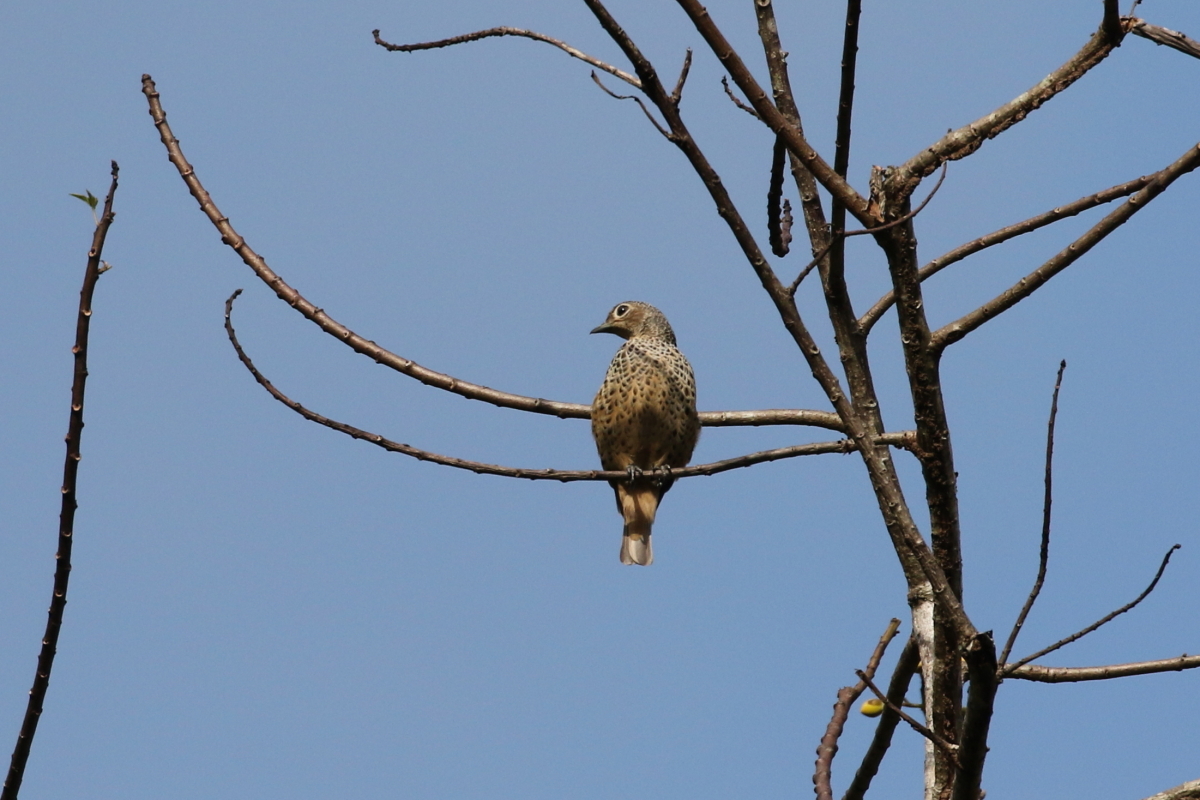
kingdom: Animalia
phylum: Chordata
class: Aves
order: Passeriformes
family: Cotingidae
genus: Cotinga
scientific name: Cotinga nattererii
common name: Blue cotinga
